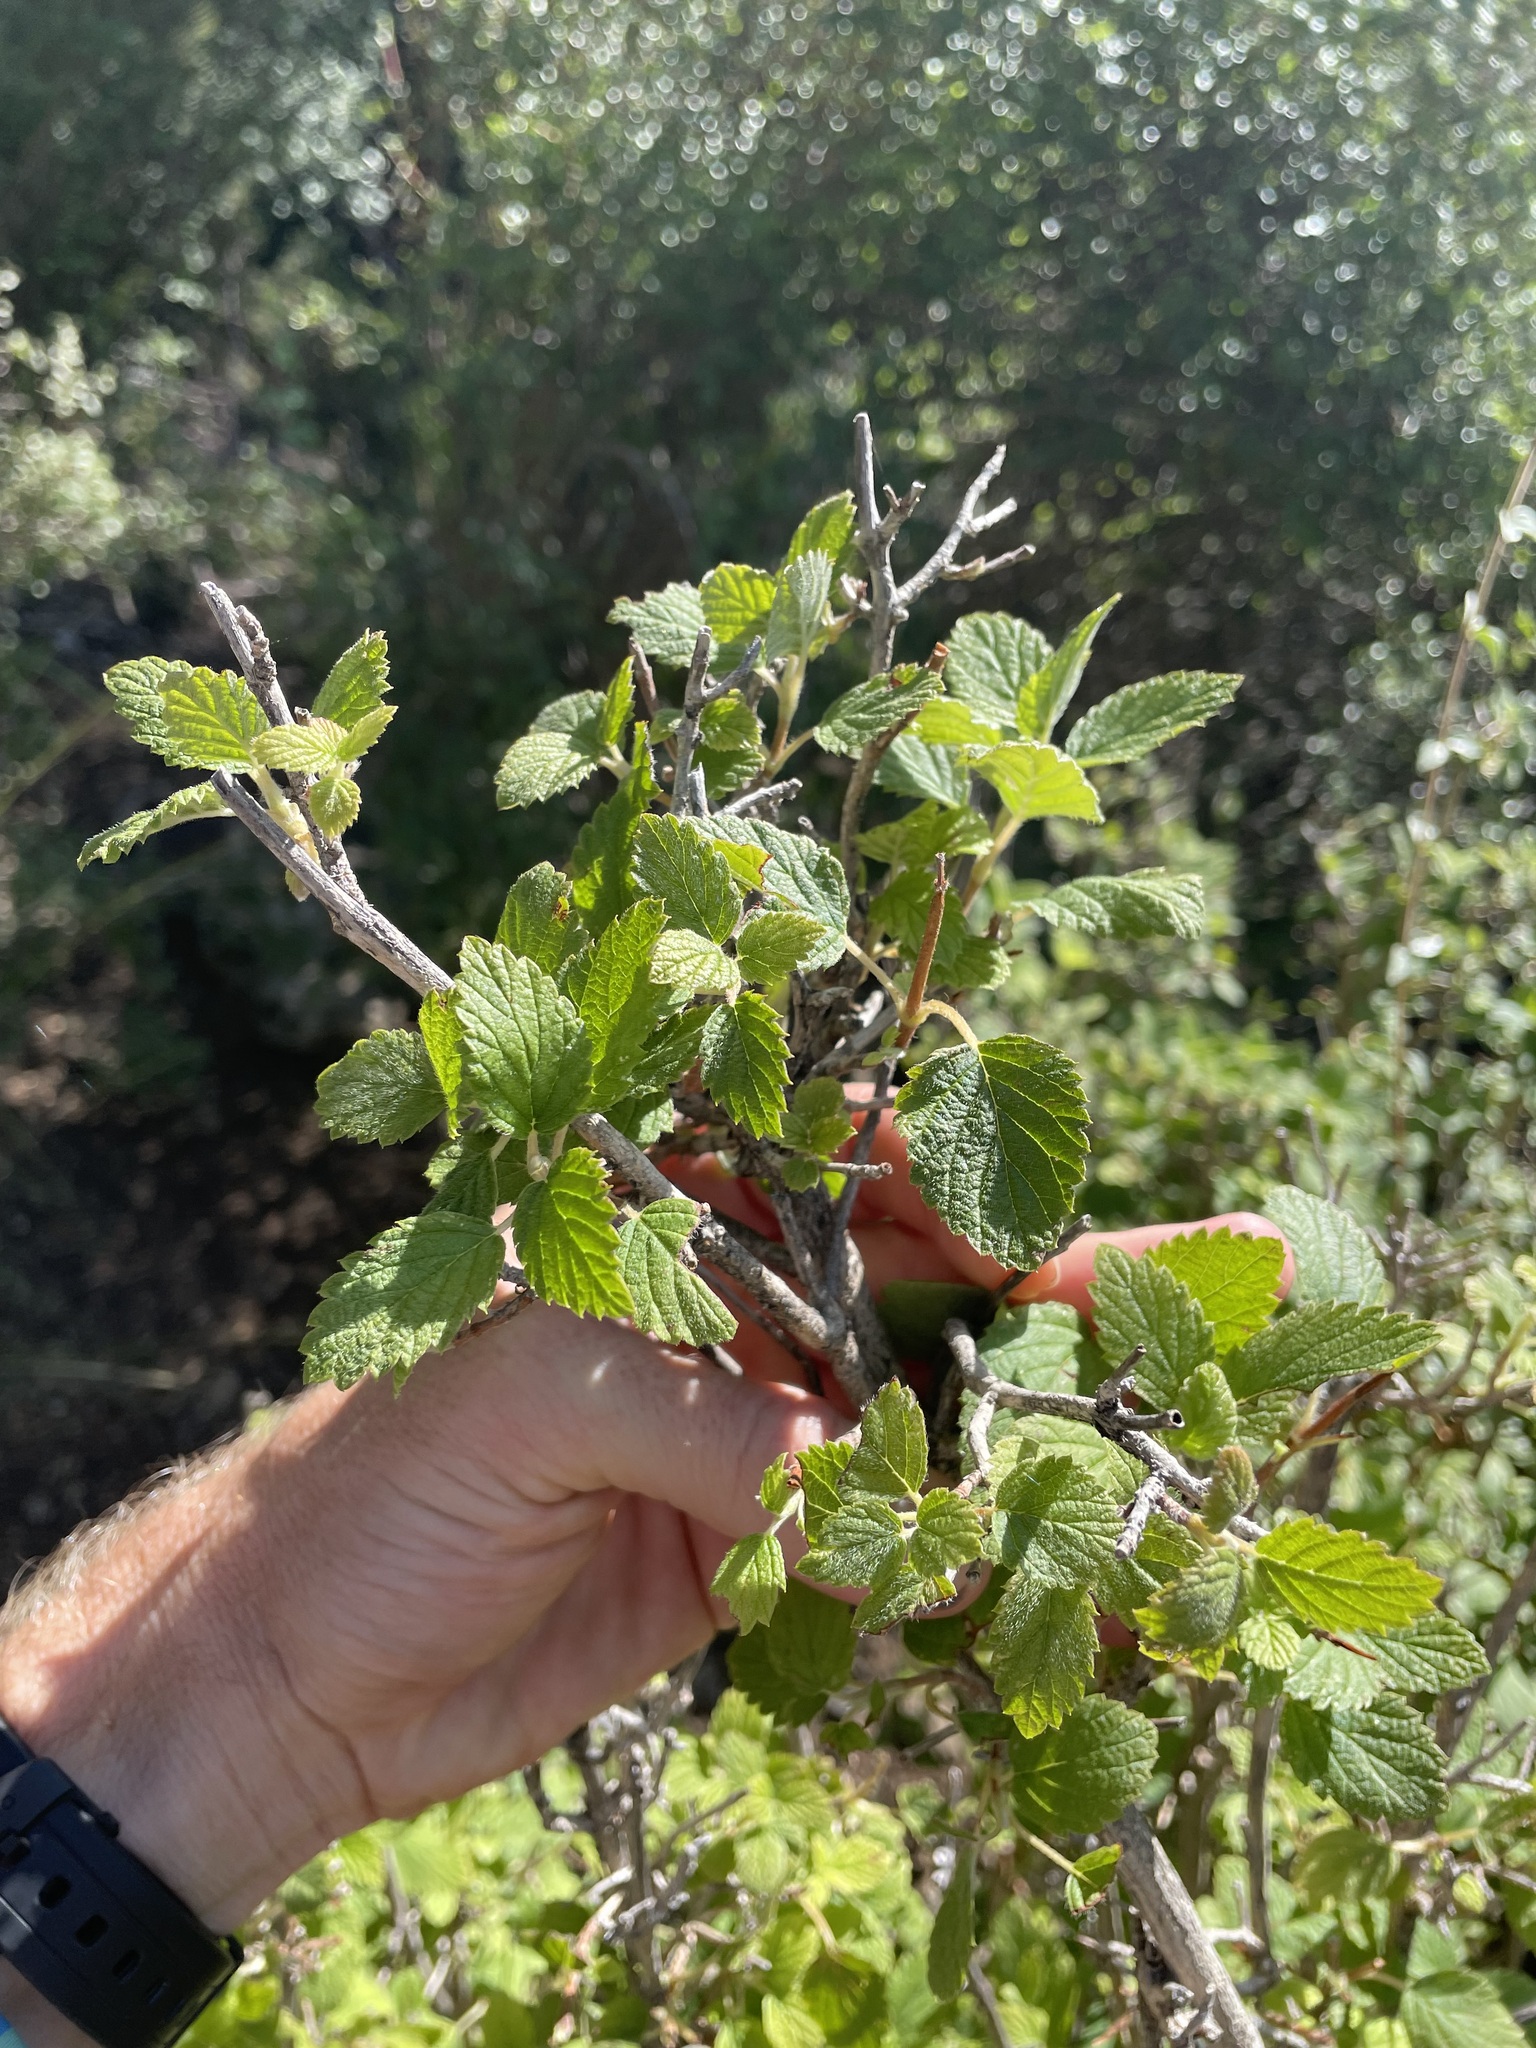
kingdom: Plantae
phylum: Tracheophyta
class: Magnoliopsida
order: Cornales
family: Hydrangeaceae
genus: Jamesia
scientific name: Jamesia americana
